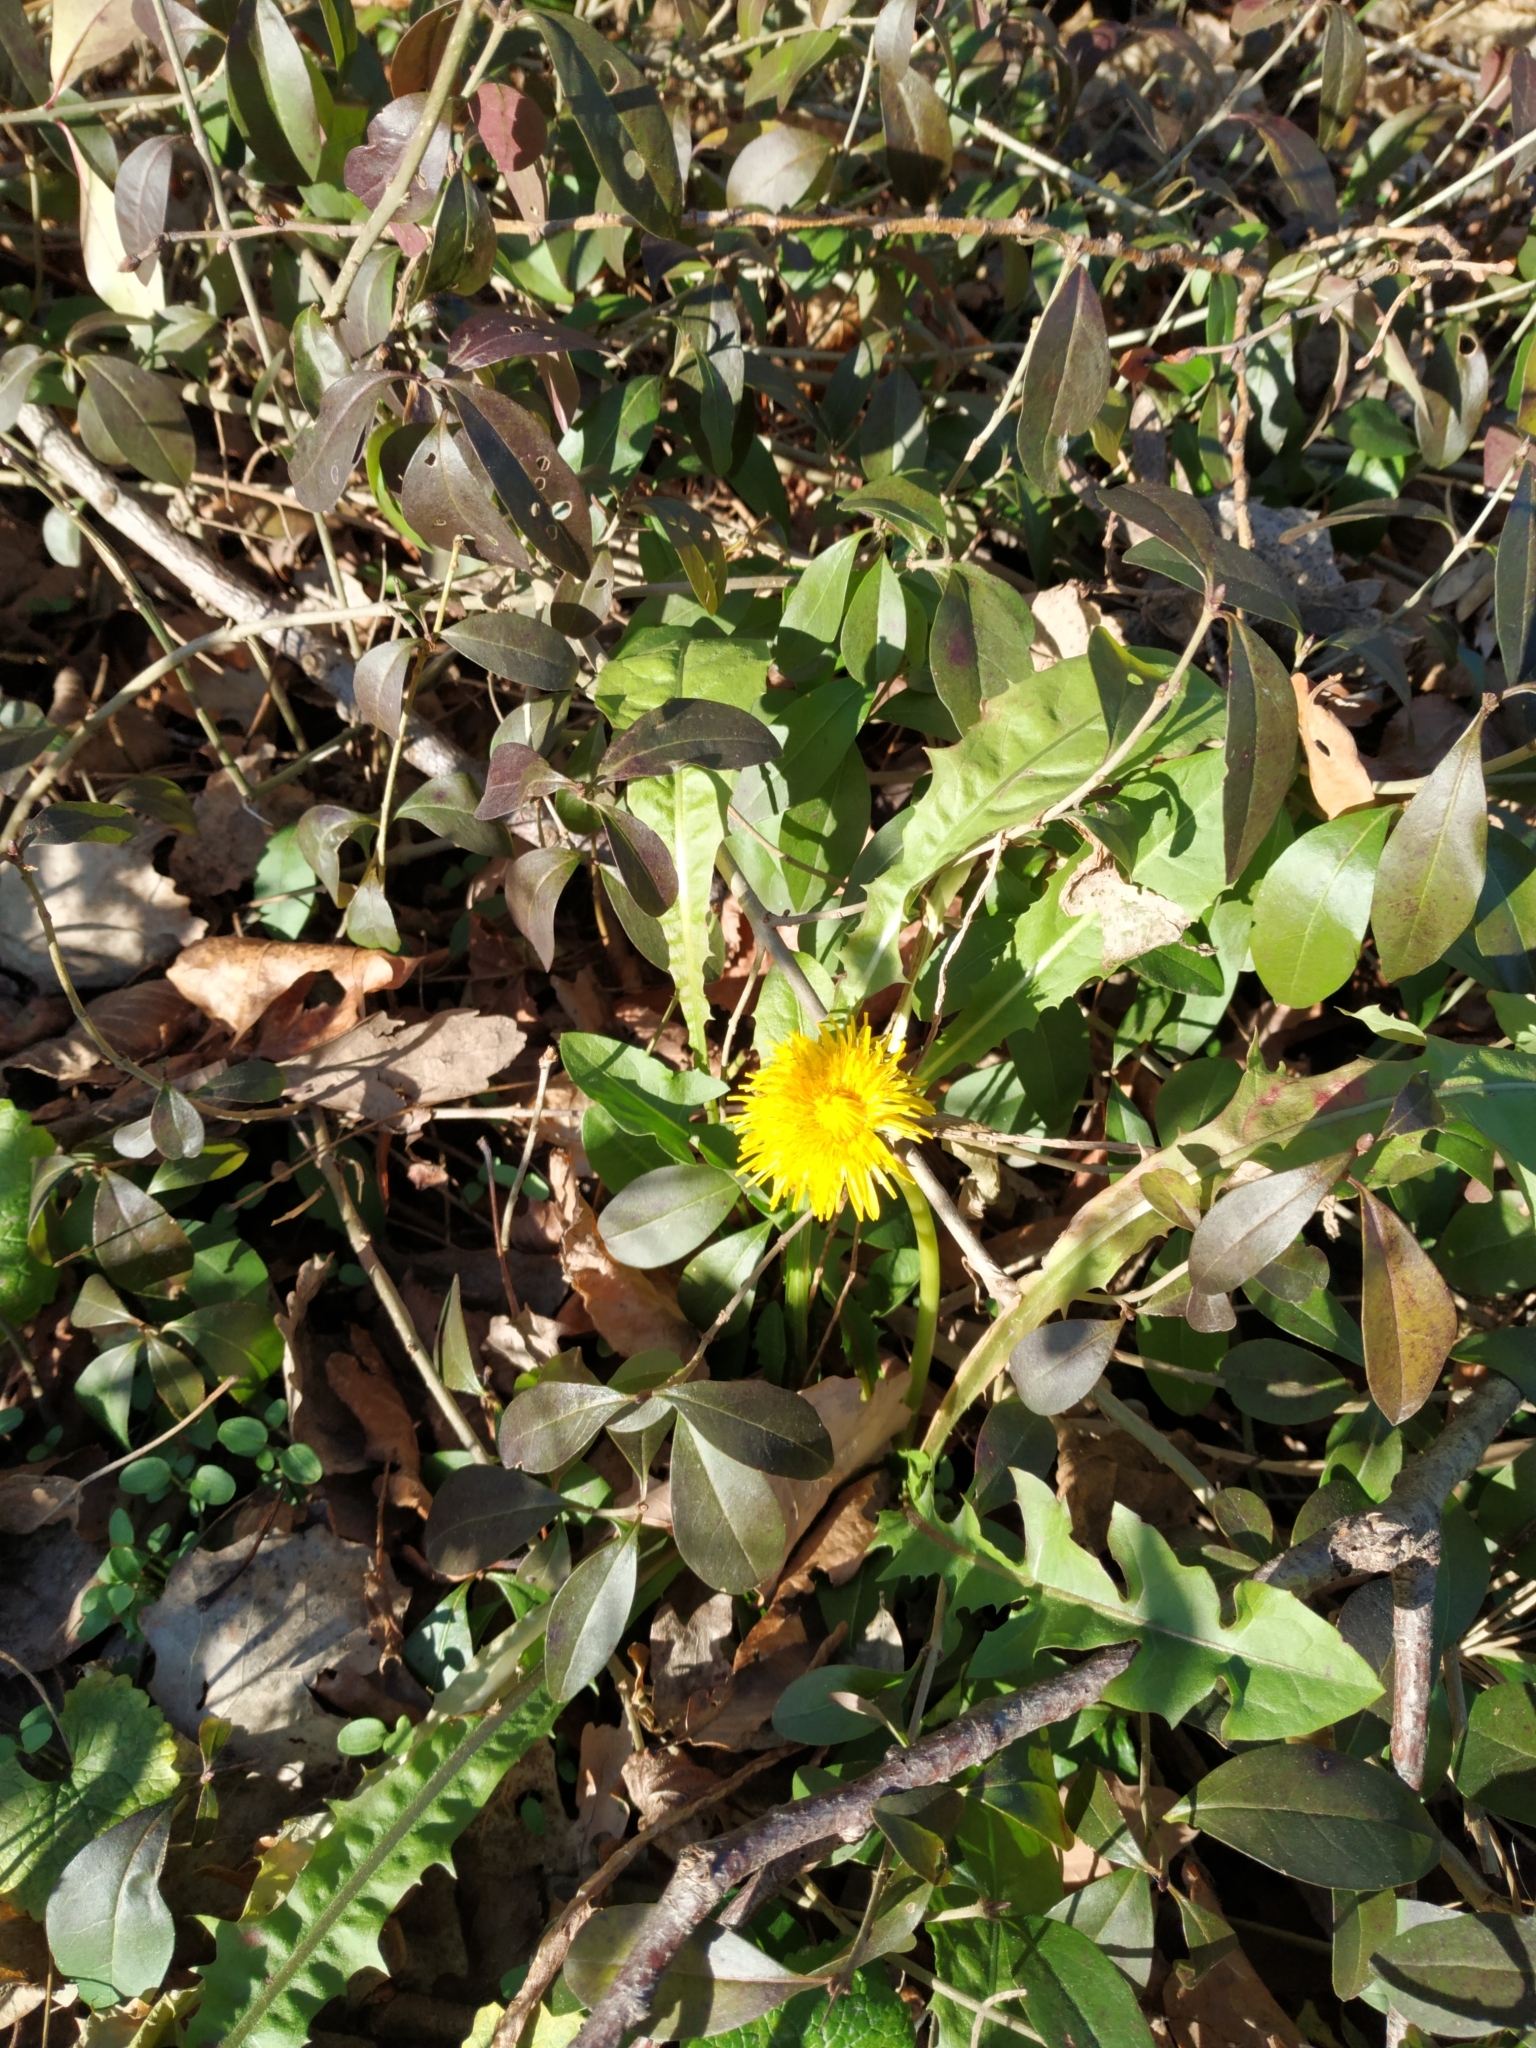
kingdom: Plantae
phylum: Tracheophyta
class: Magnoliopsida
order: Asterales
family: Asteraceae
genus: Taraxacum
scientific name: Taraxacum officinale
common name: Common dandelion
